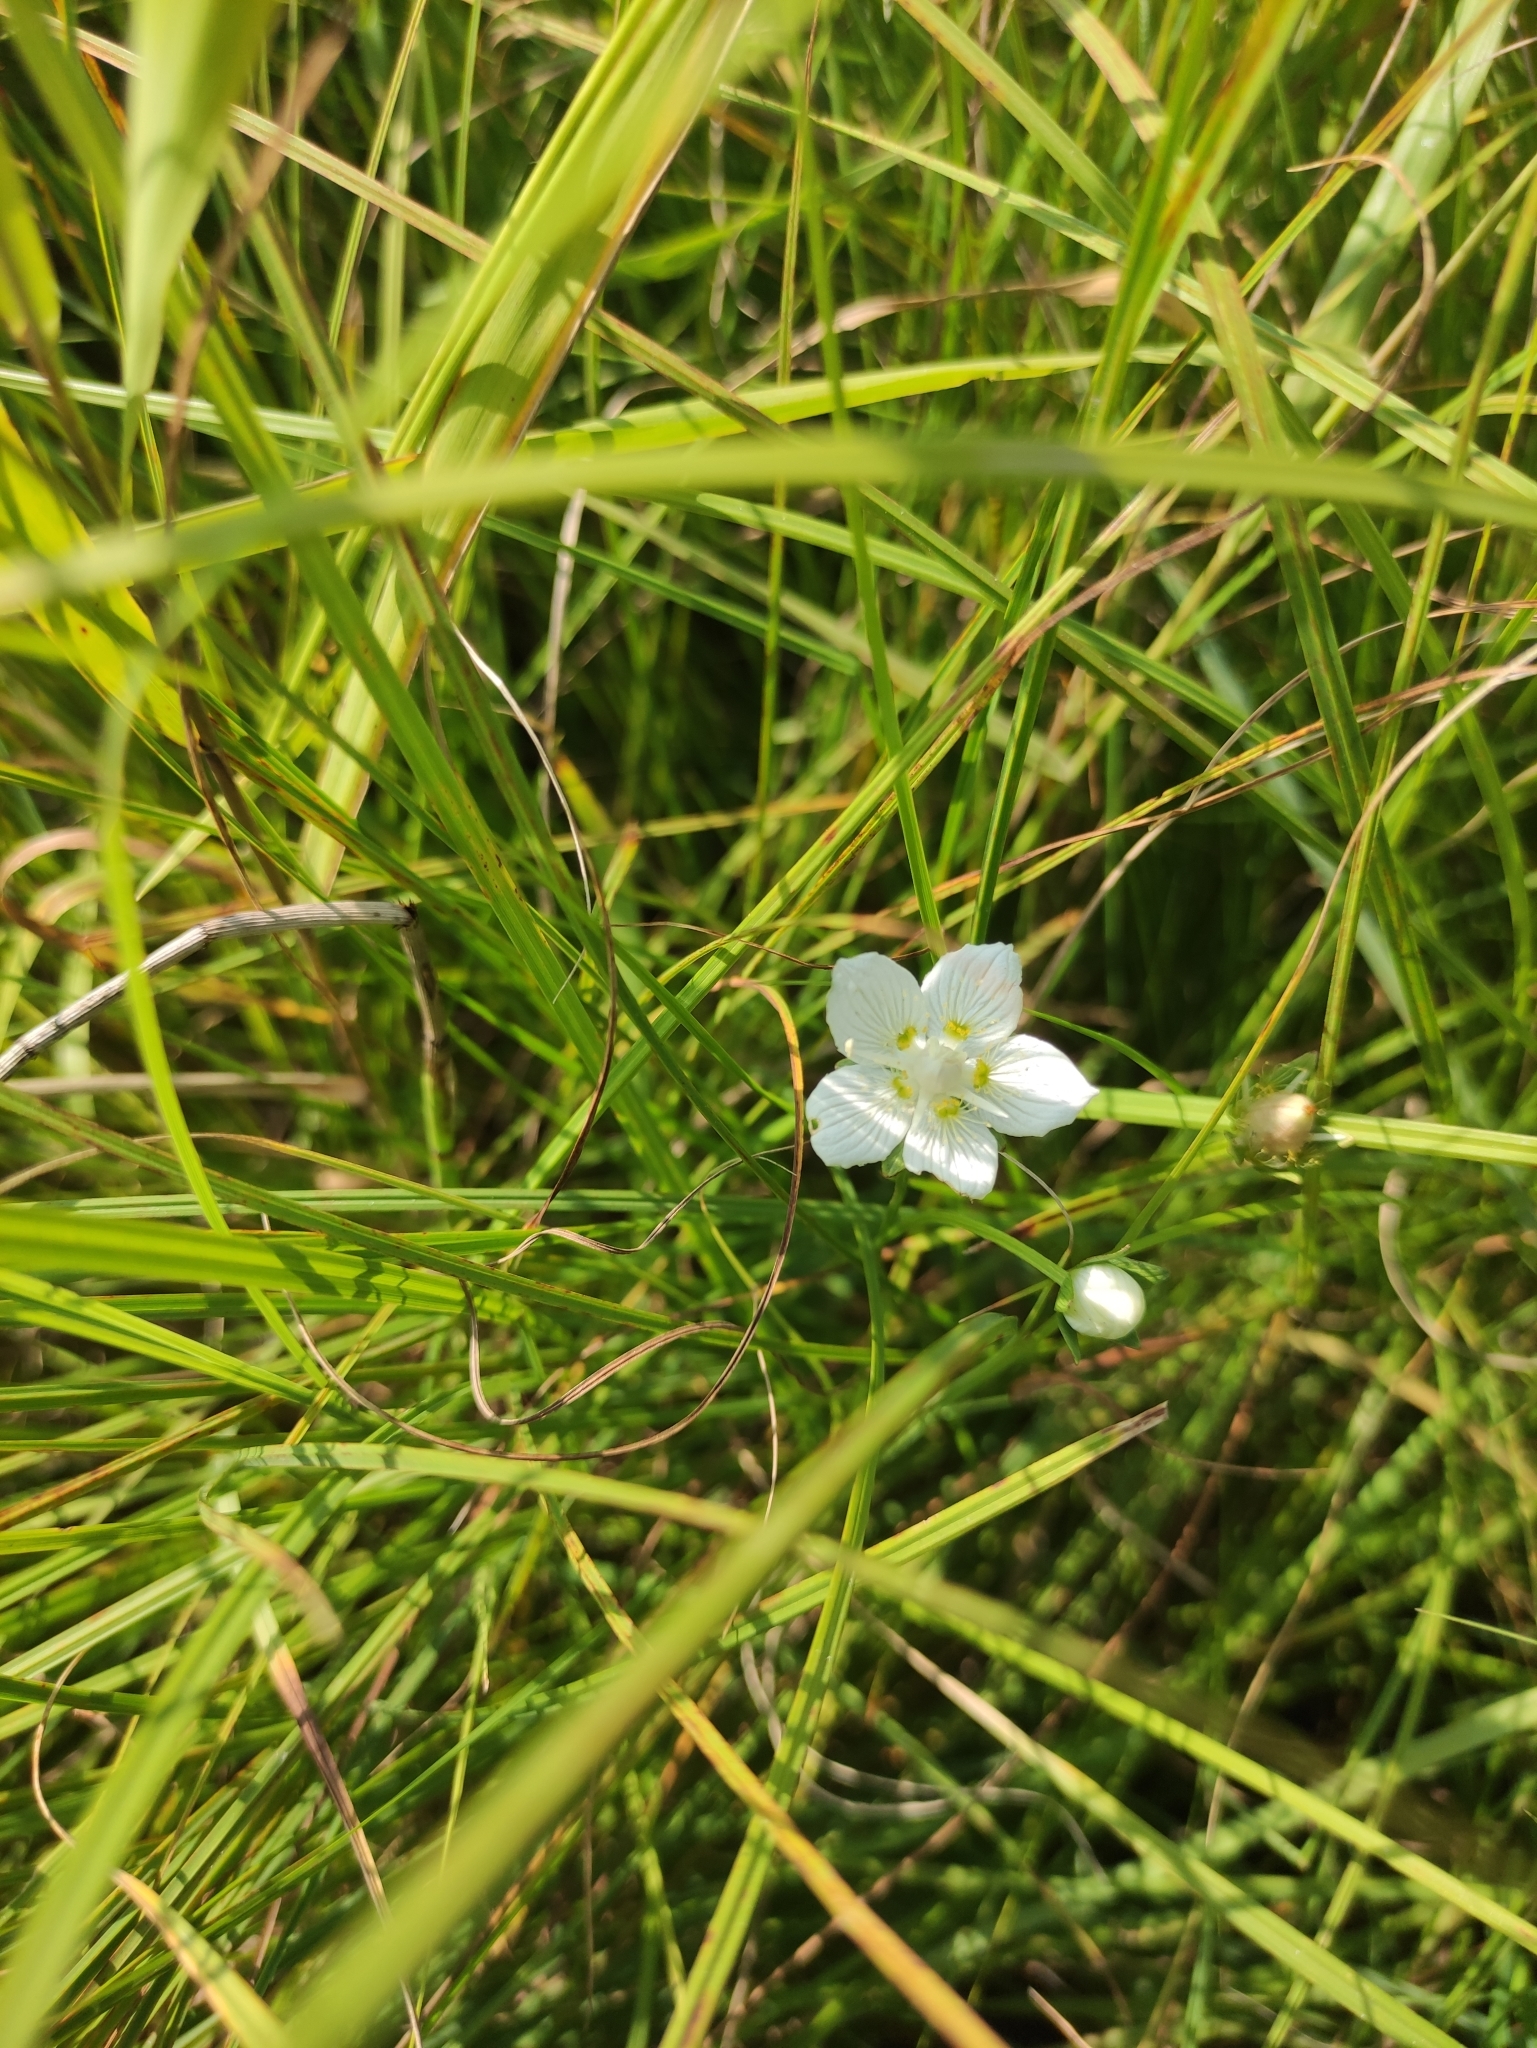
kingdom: Plantae
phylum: Tracheophyta
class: Magnoliopsida
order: Celastrales
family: Parnassiaceae
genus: Parnassia
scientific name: Parnassia palustris
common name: Grass-of-parnassus
